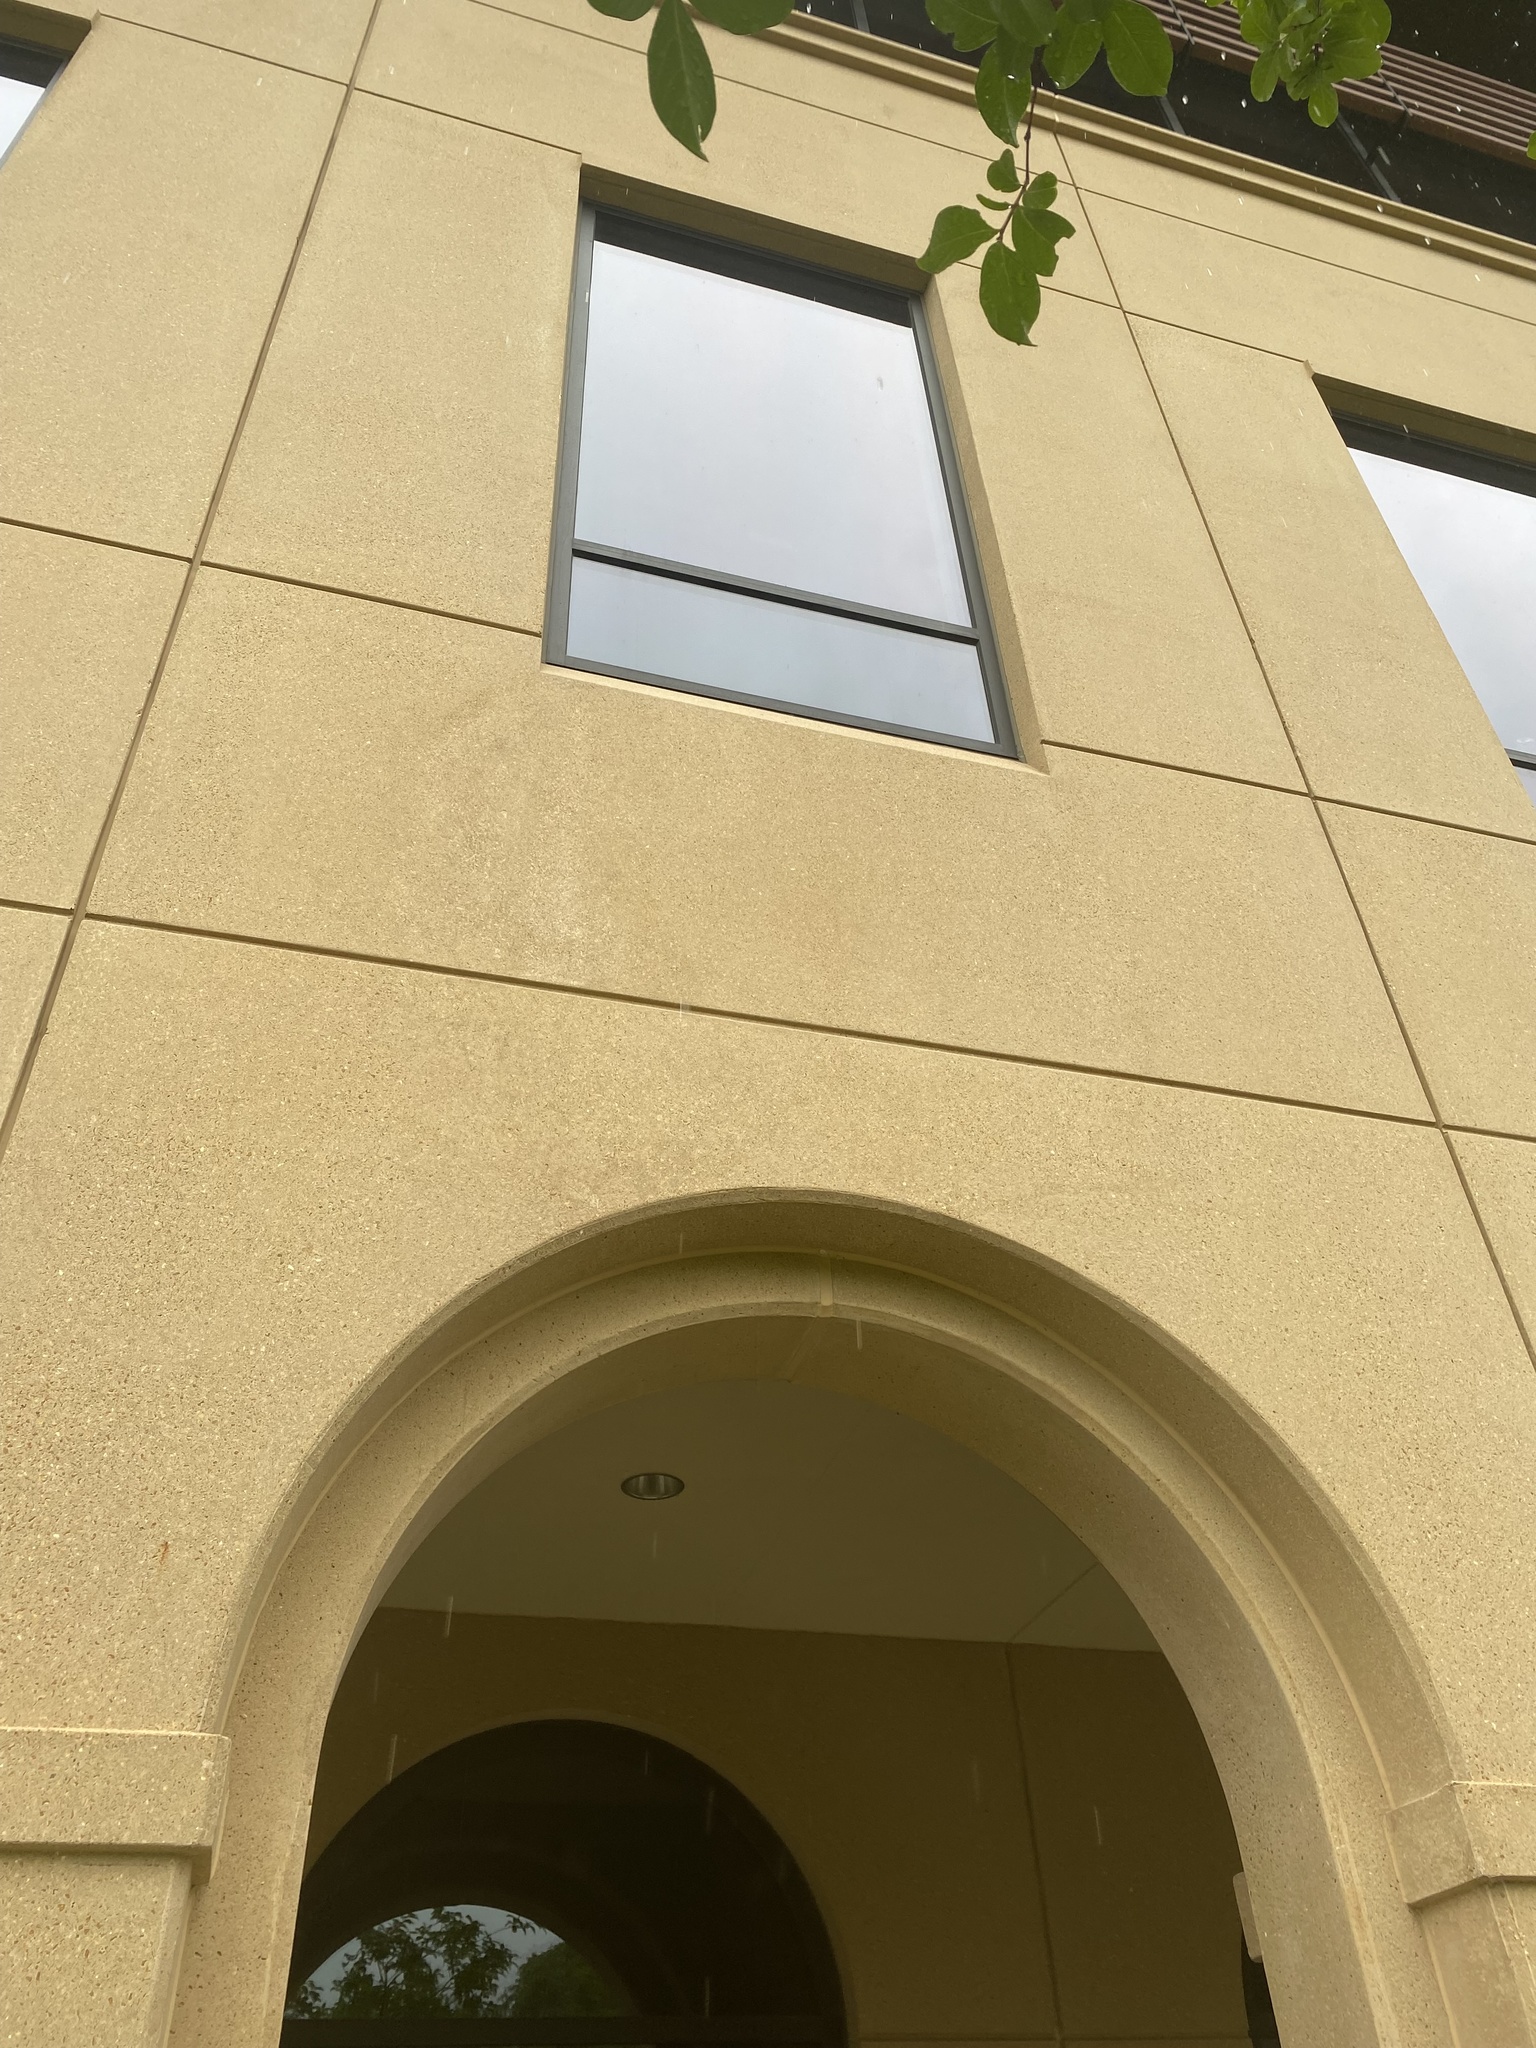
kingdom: Animalia
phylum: Chordata
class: Aves
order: Columbiformes
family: Columbidae
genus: Zenaida
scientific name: Zenaida macroura
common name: Mourning dove
